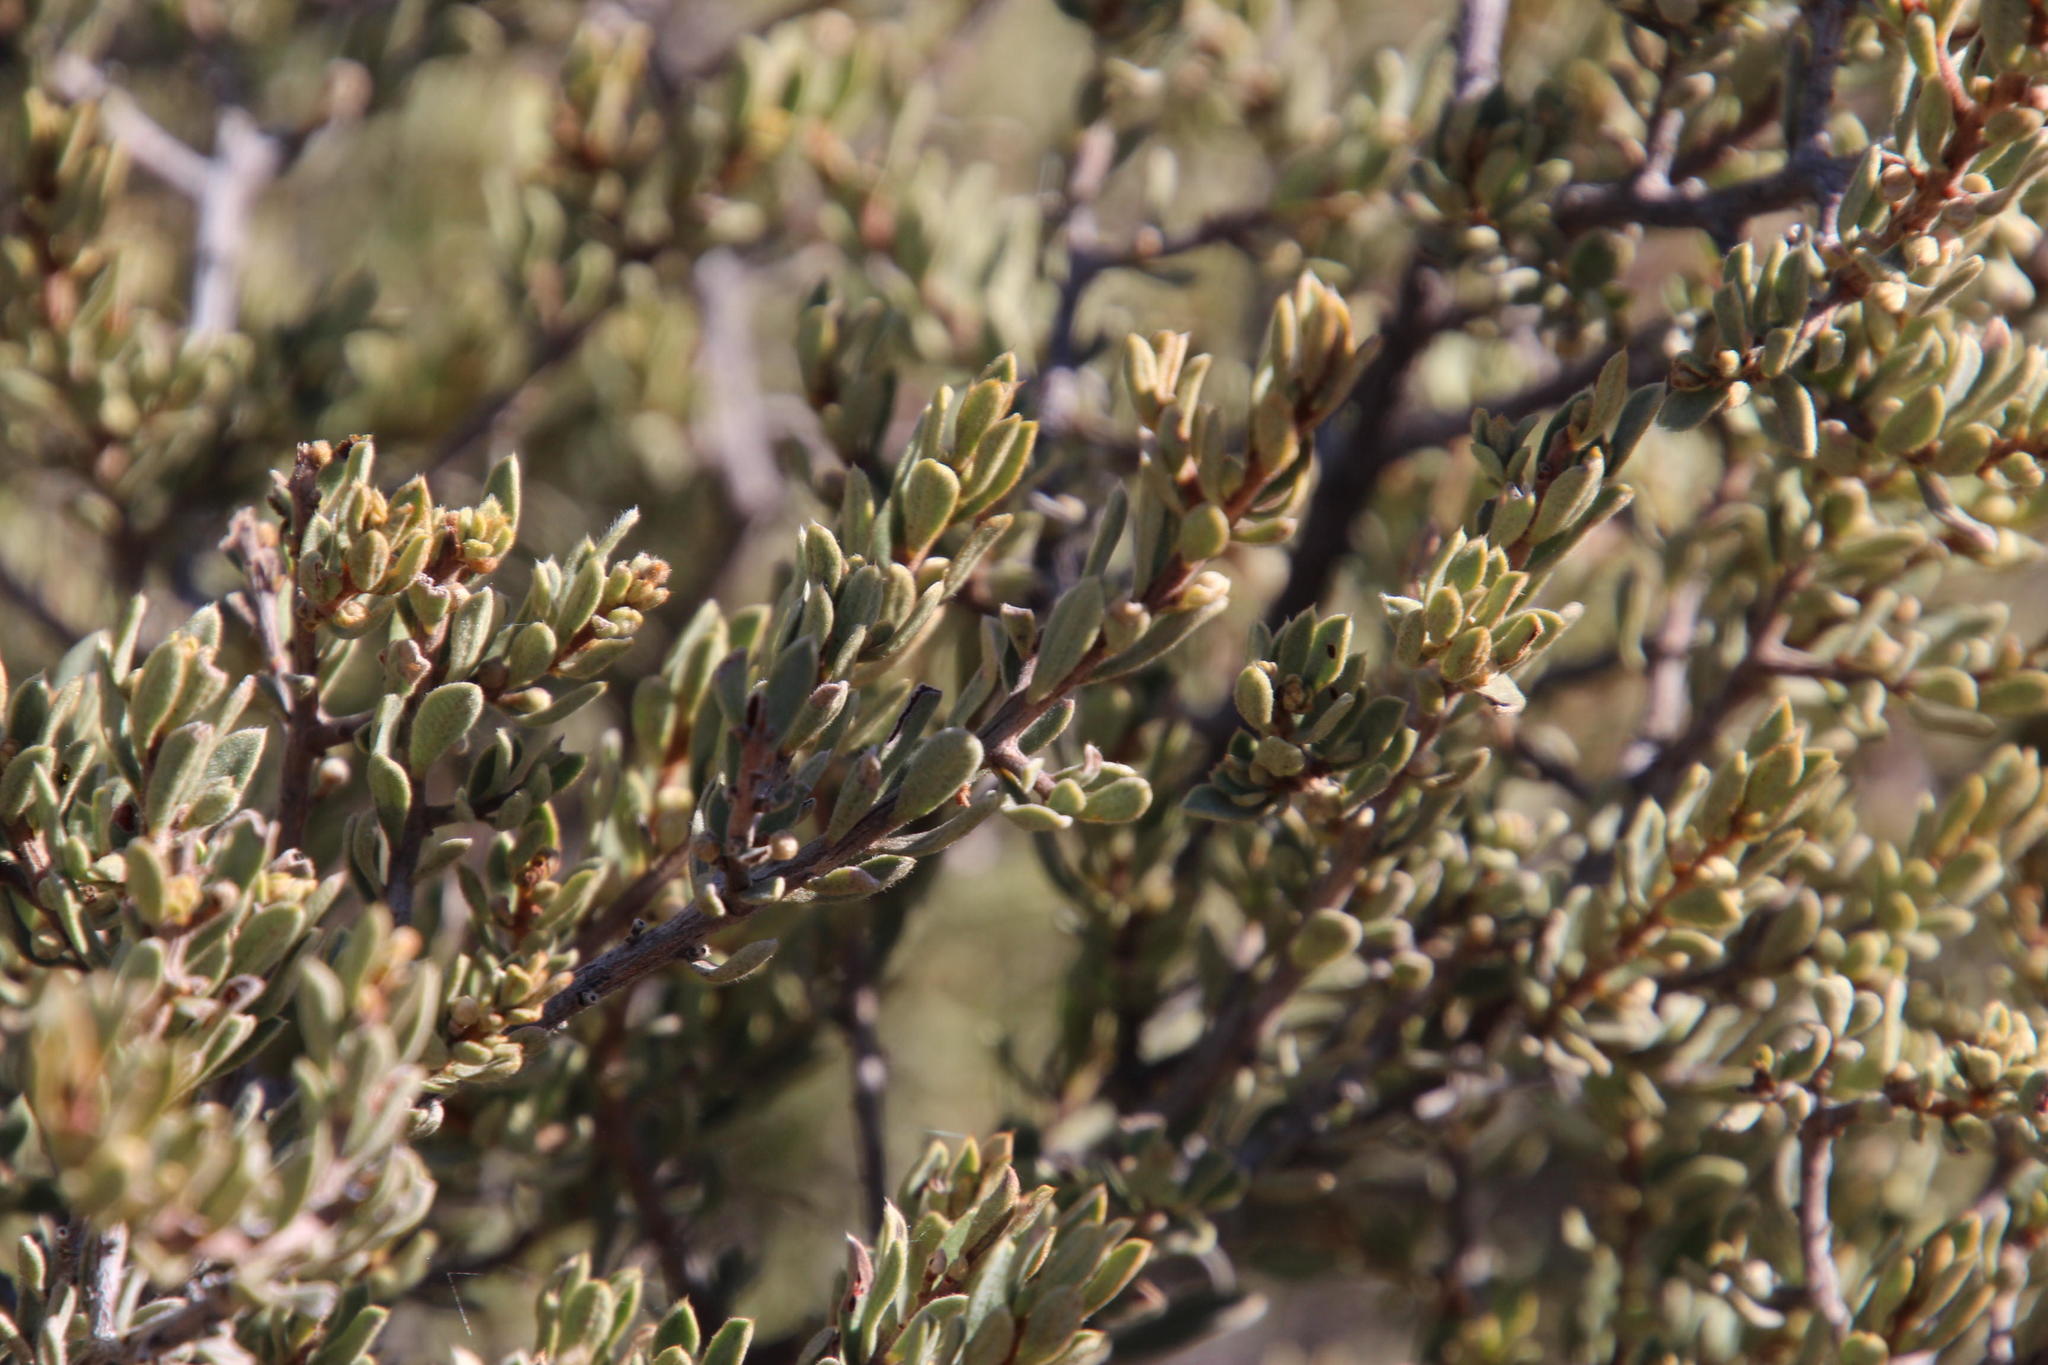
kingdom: Plantae
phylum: Tracheophyta
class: Magnoliopsida
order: Ericales
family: Ebenaceae
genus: Diospyros
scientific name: Diospyros pubescens
